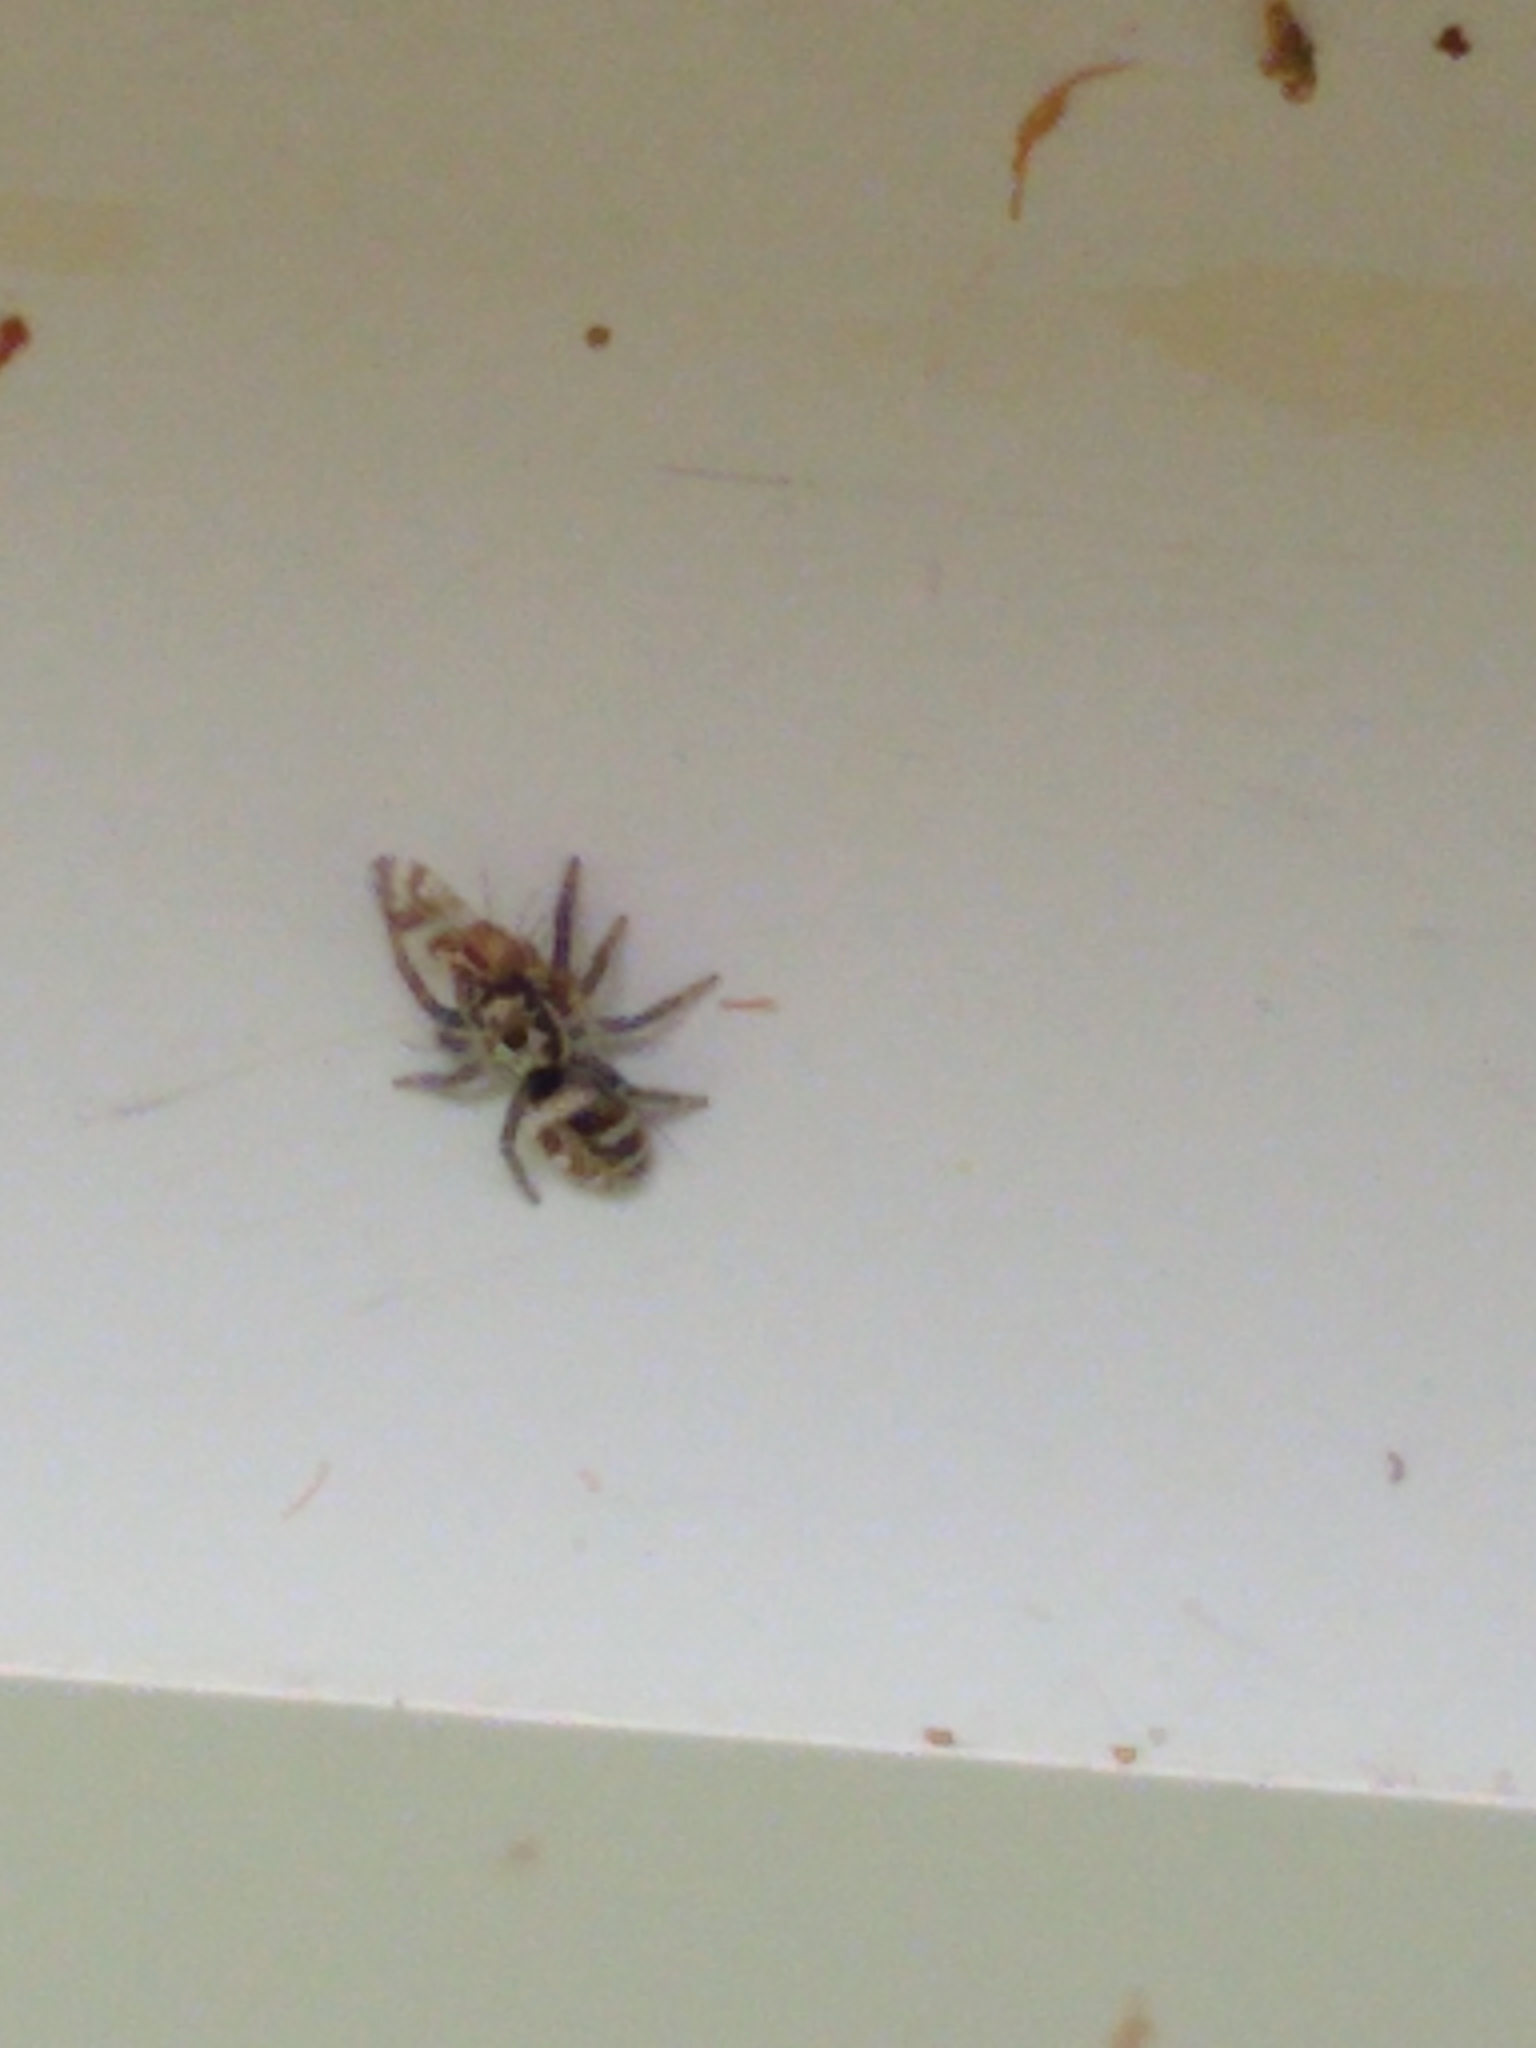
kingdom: Animalia
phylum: Arthropoda
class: Arachnida
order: Araneae
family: Salticidae
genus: Salticus
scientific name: Salticus scenicus
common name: Zebra jumper
